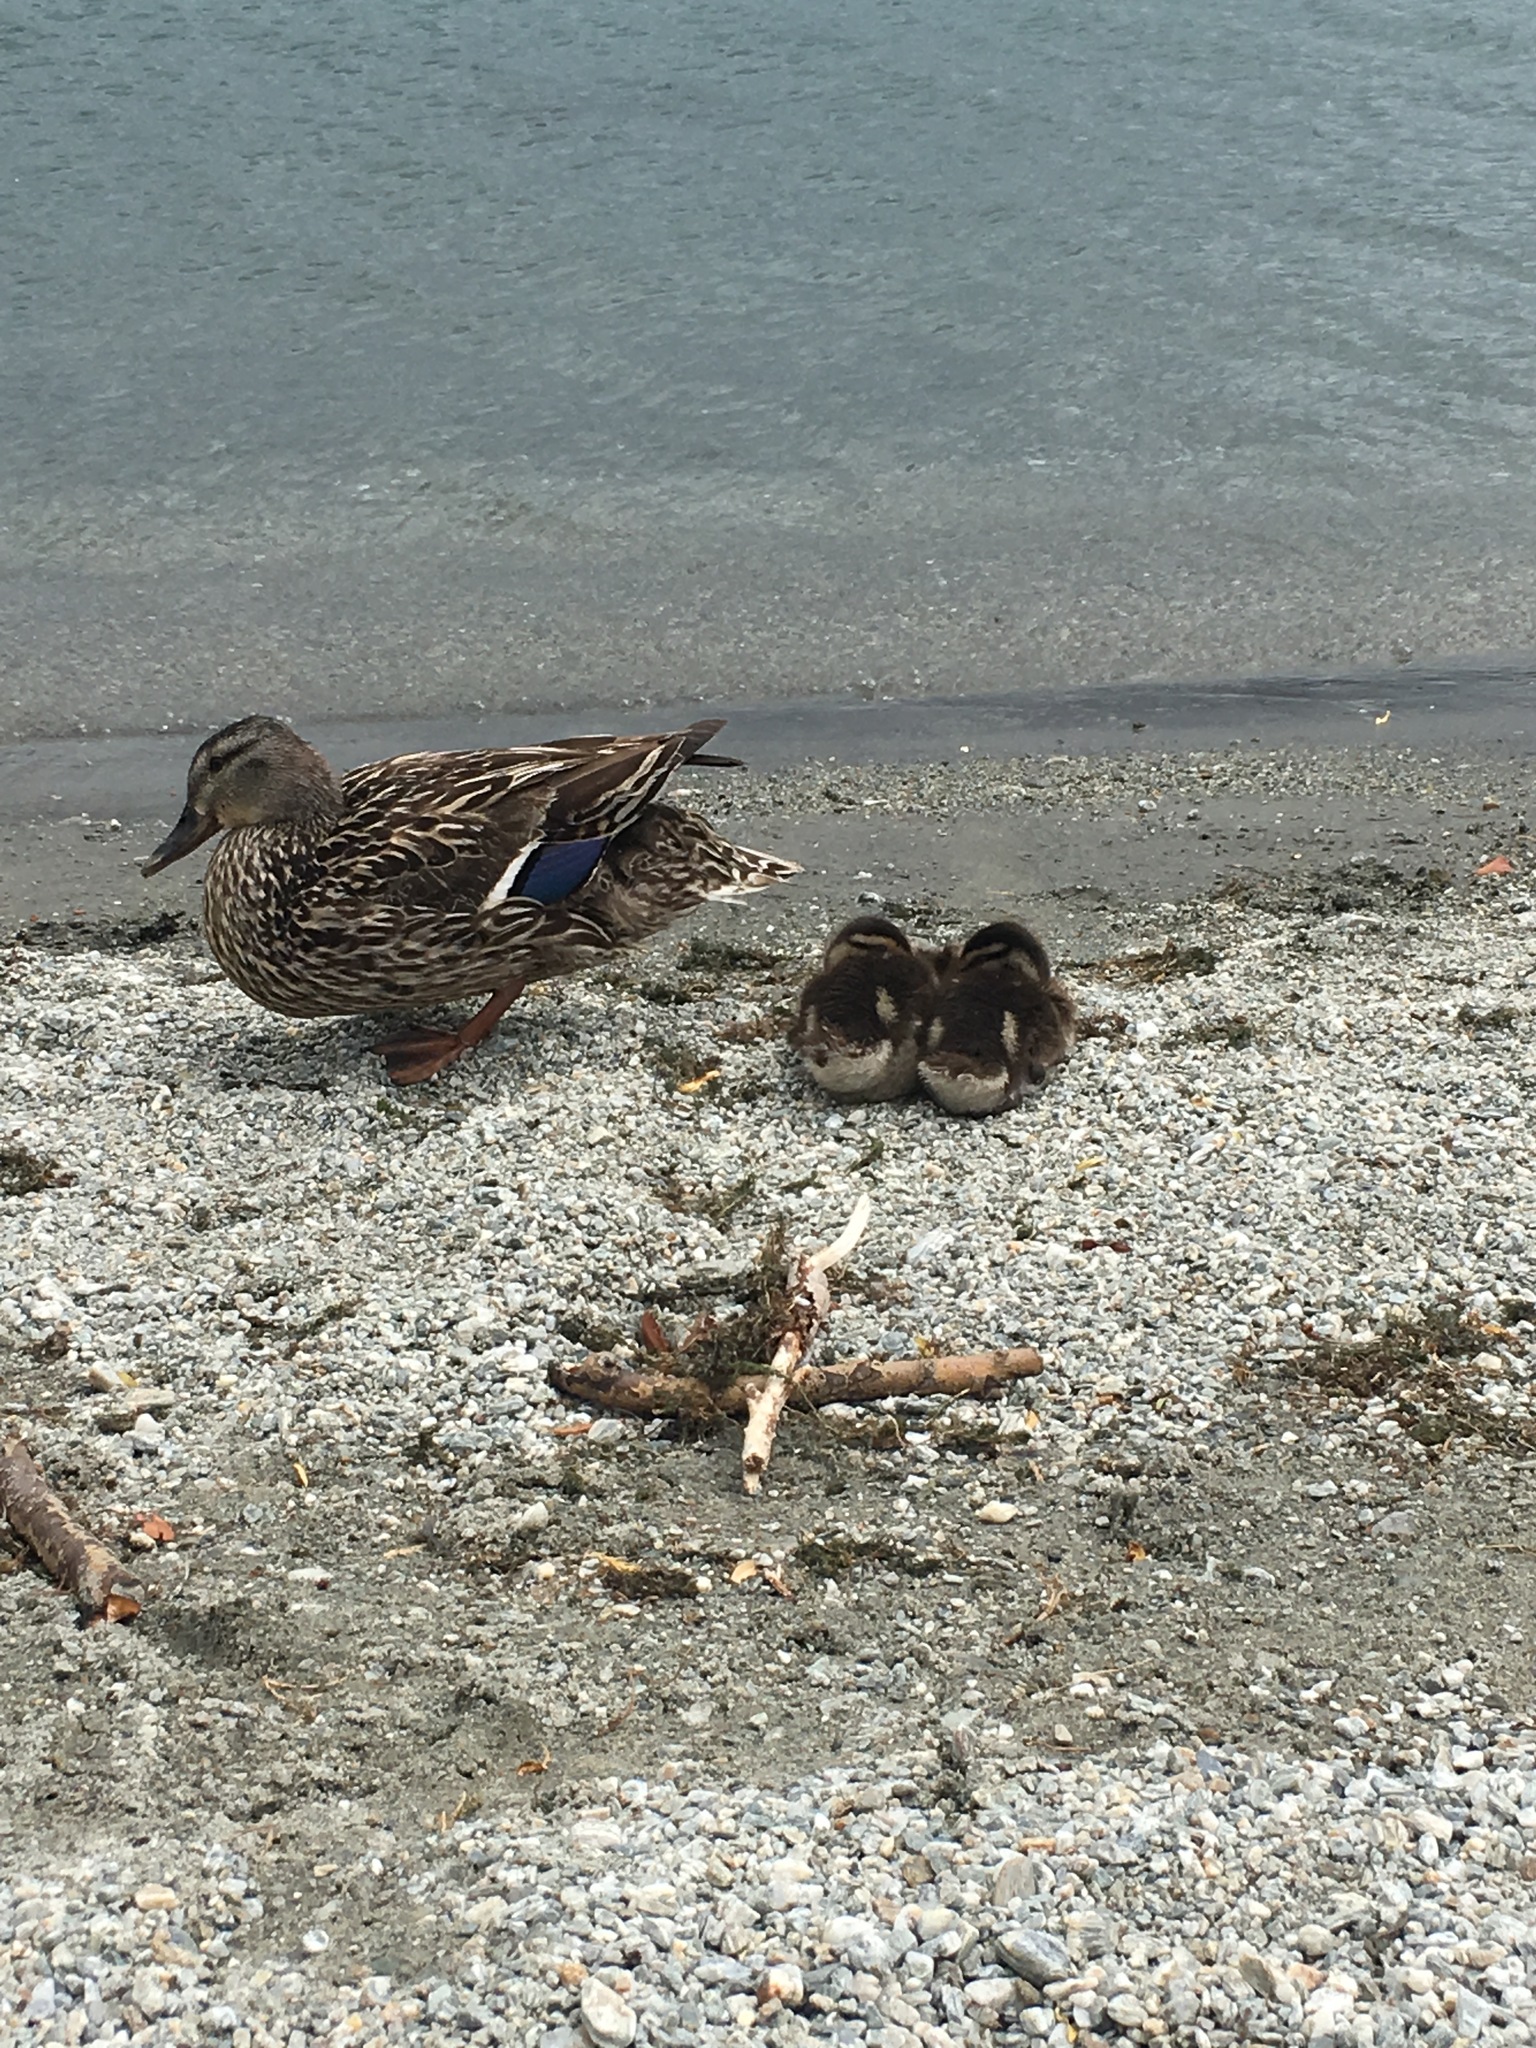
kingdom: Animalia
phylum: Chordata
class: Aves
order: Anseriformes
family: Anatidae
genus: Anas
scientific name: Anas platyrhynchos
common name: Mallard
